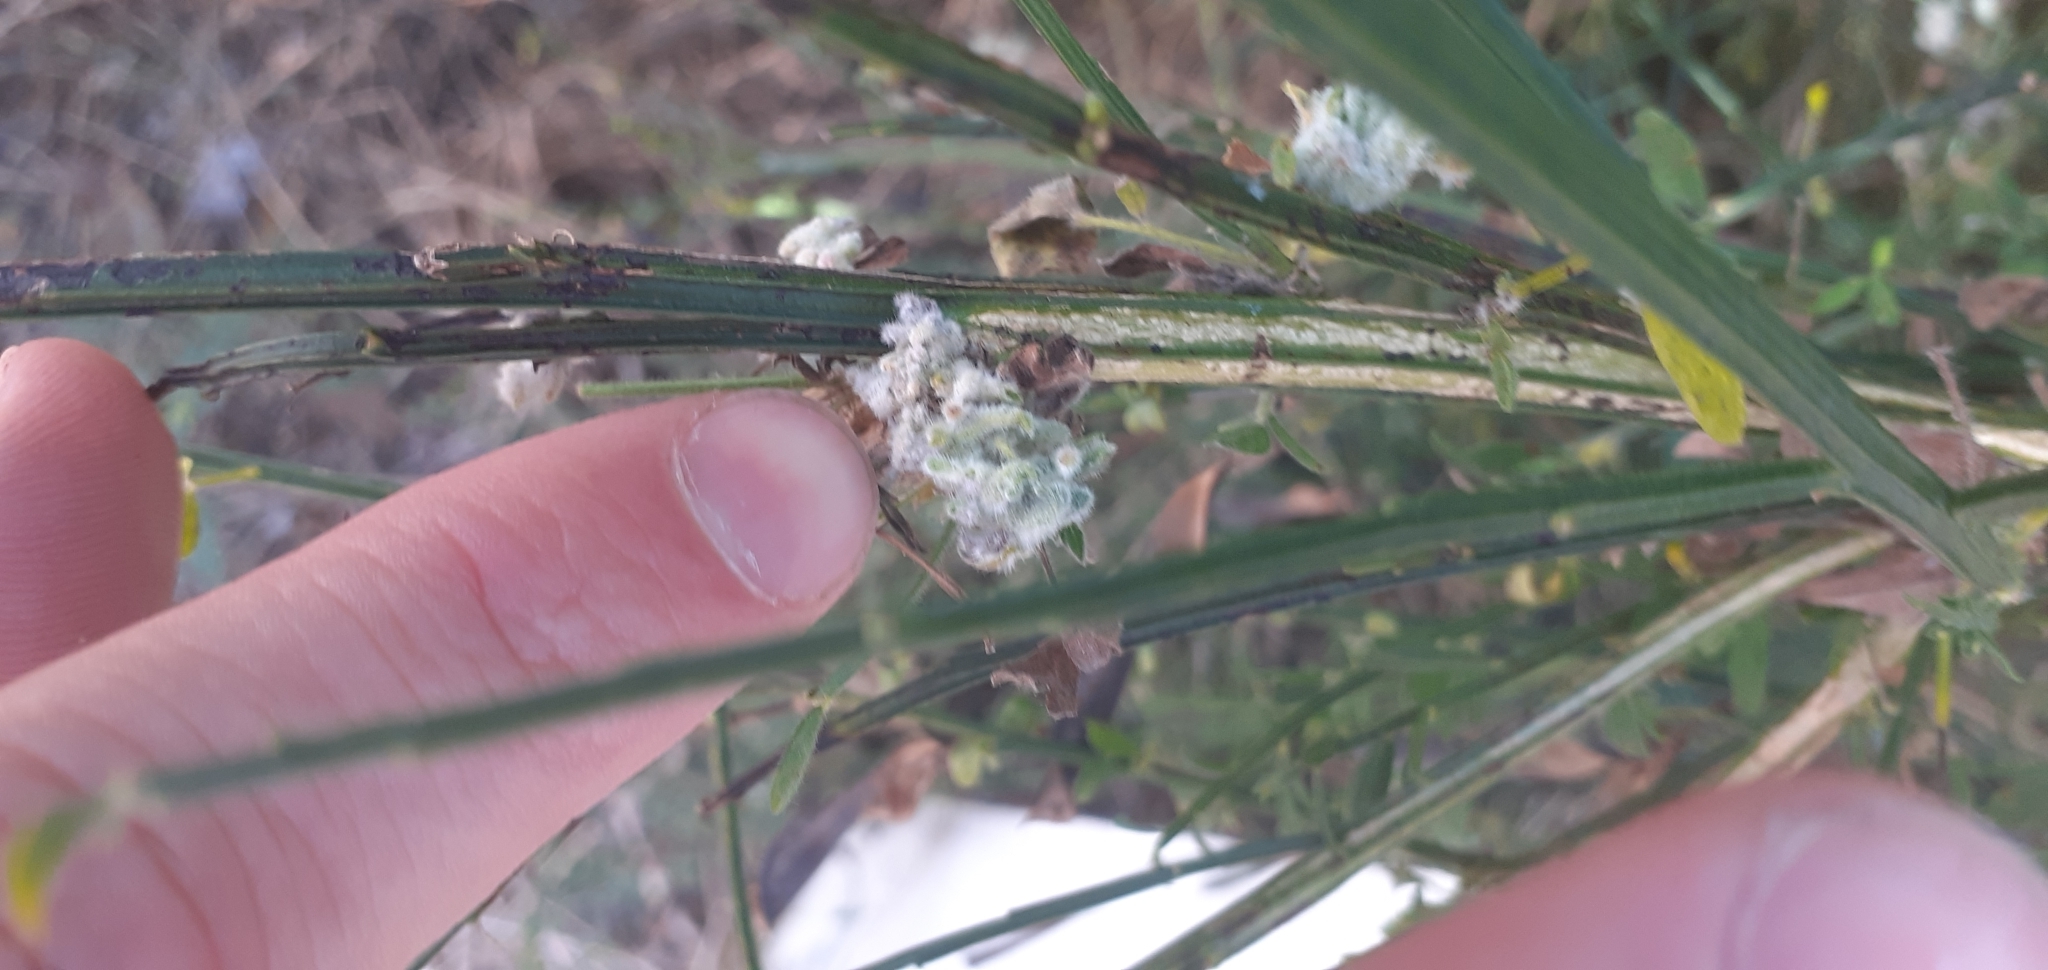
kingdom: Animalia
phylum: Arthropoda
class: Arachnida
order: Trombidiformes
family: Eriophyidae
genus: Aceria
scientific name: Aceria genistae
